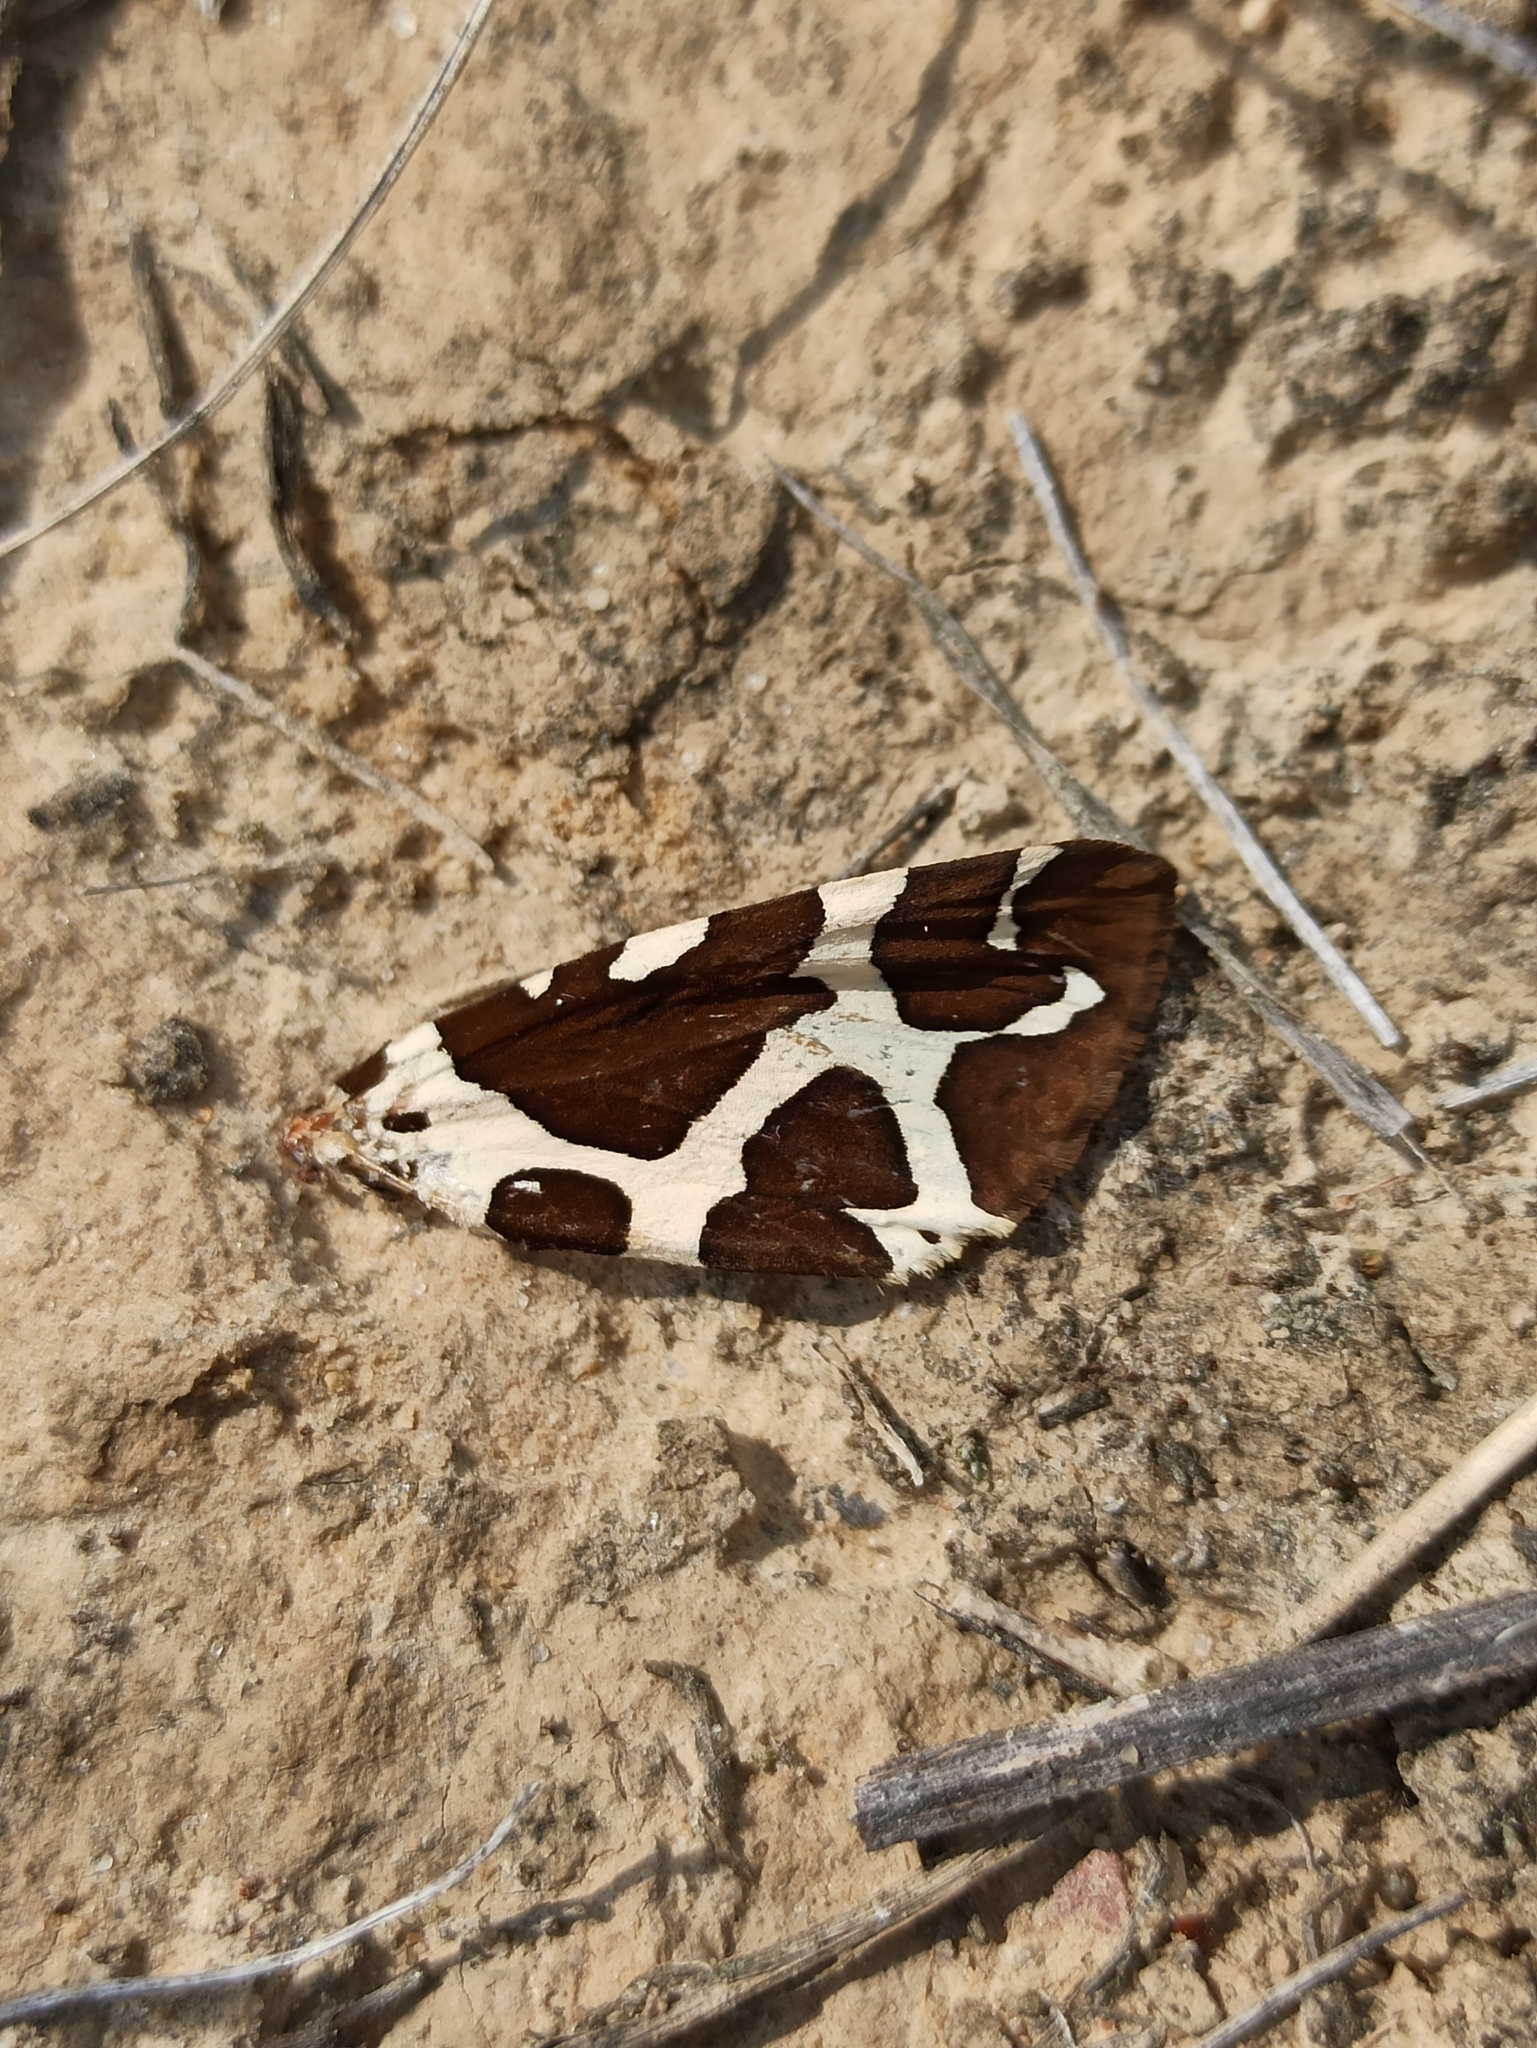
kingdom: Animalia
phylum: Arthropoda
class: Insecta
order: Lepidoptera
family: Erebidae
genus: Arctia
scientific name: Arctia caja
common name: Garden tiger
